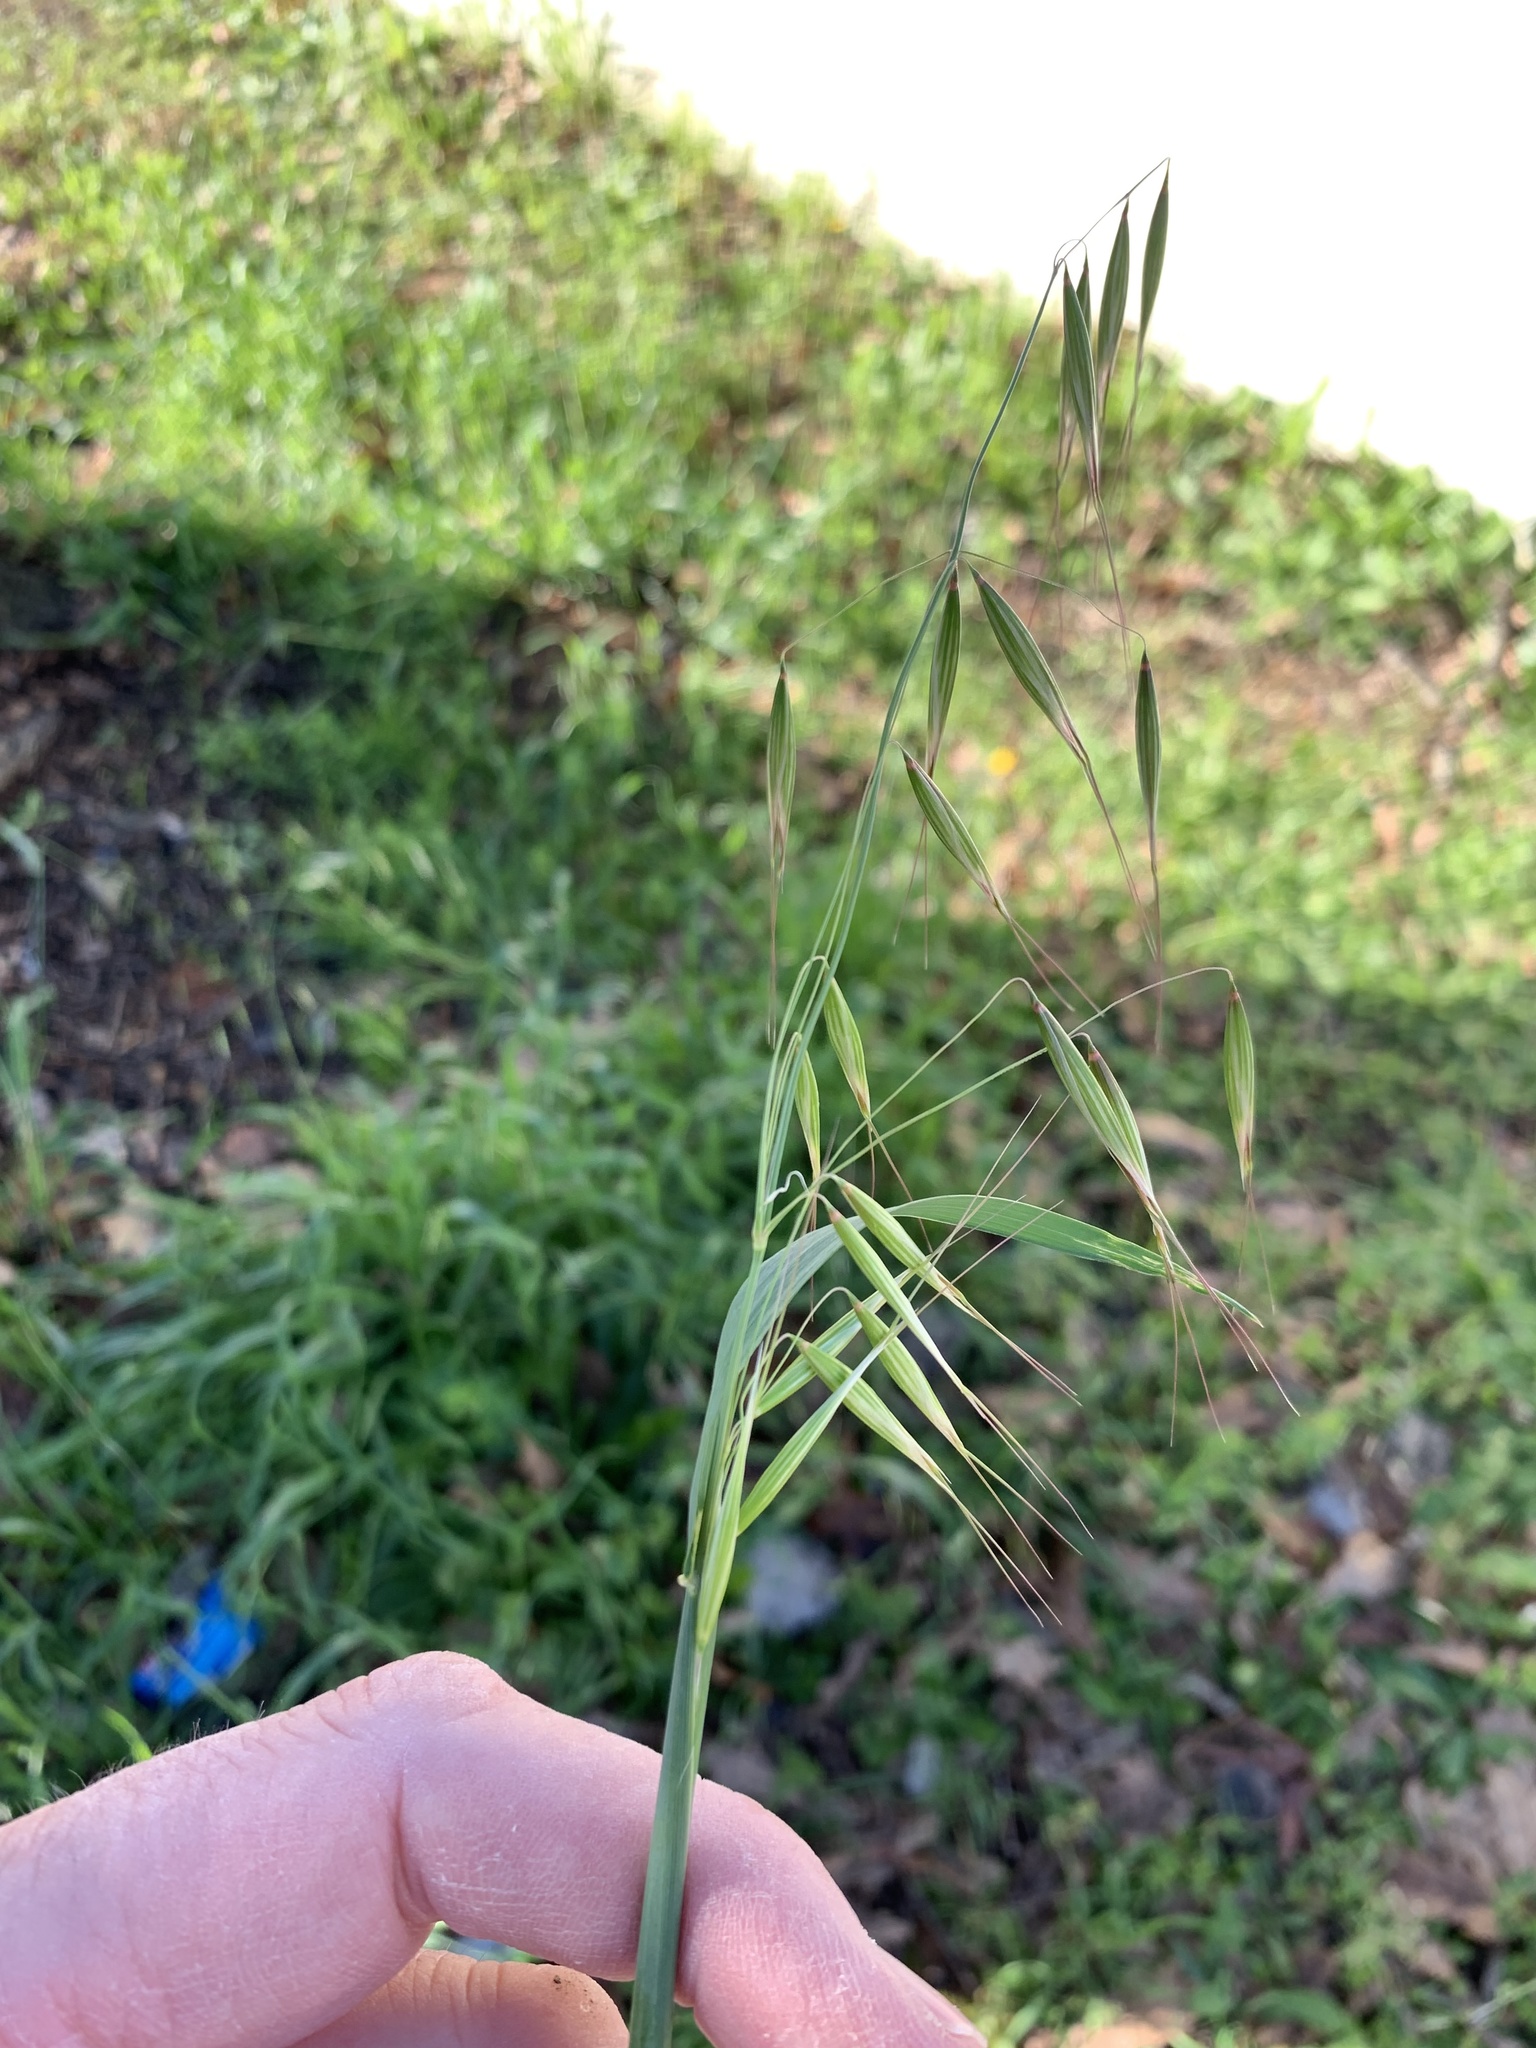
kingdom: Plantae
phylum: Tracheophyta
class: Liliopsida
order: Poales
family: Poaceae
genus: Avena
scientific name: Avena fatua
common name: Wild oat
